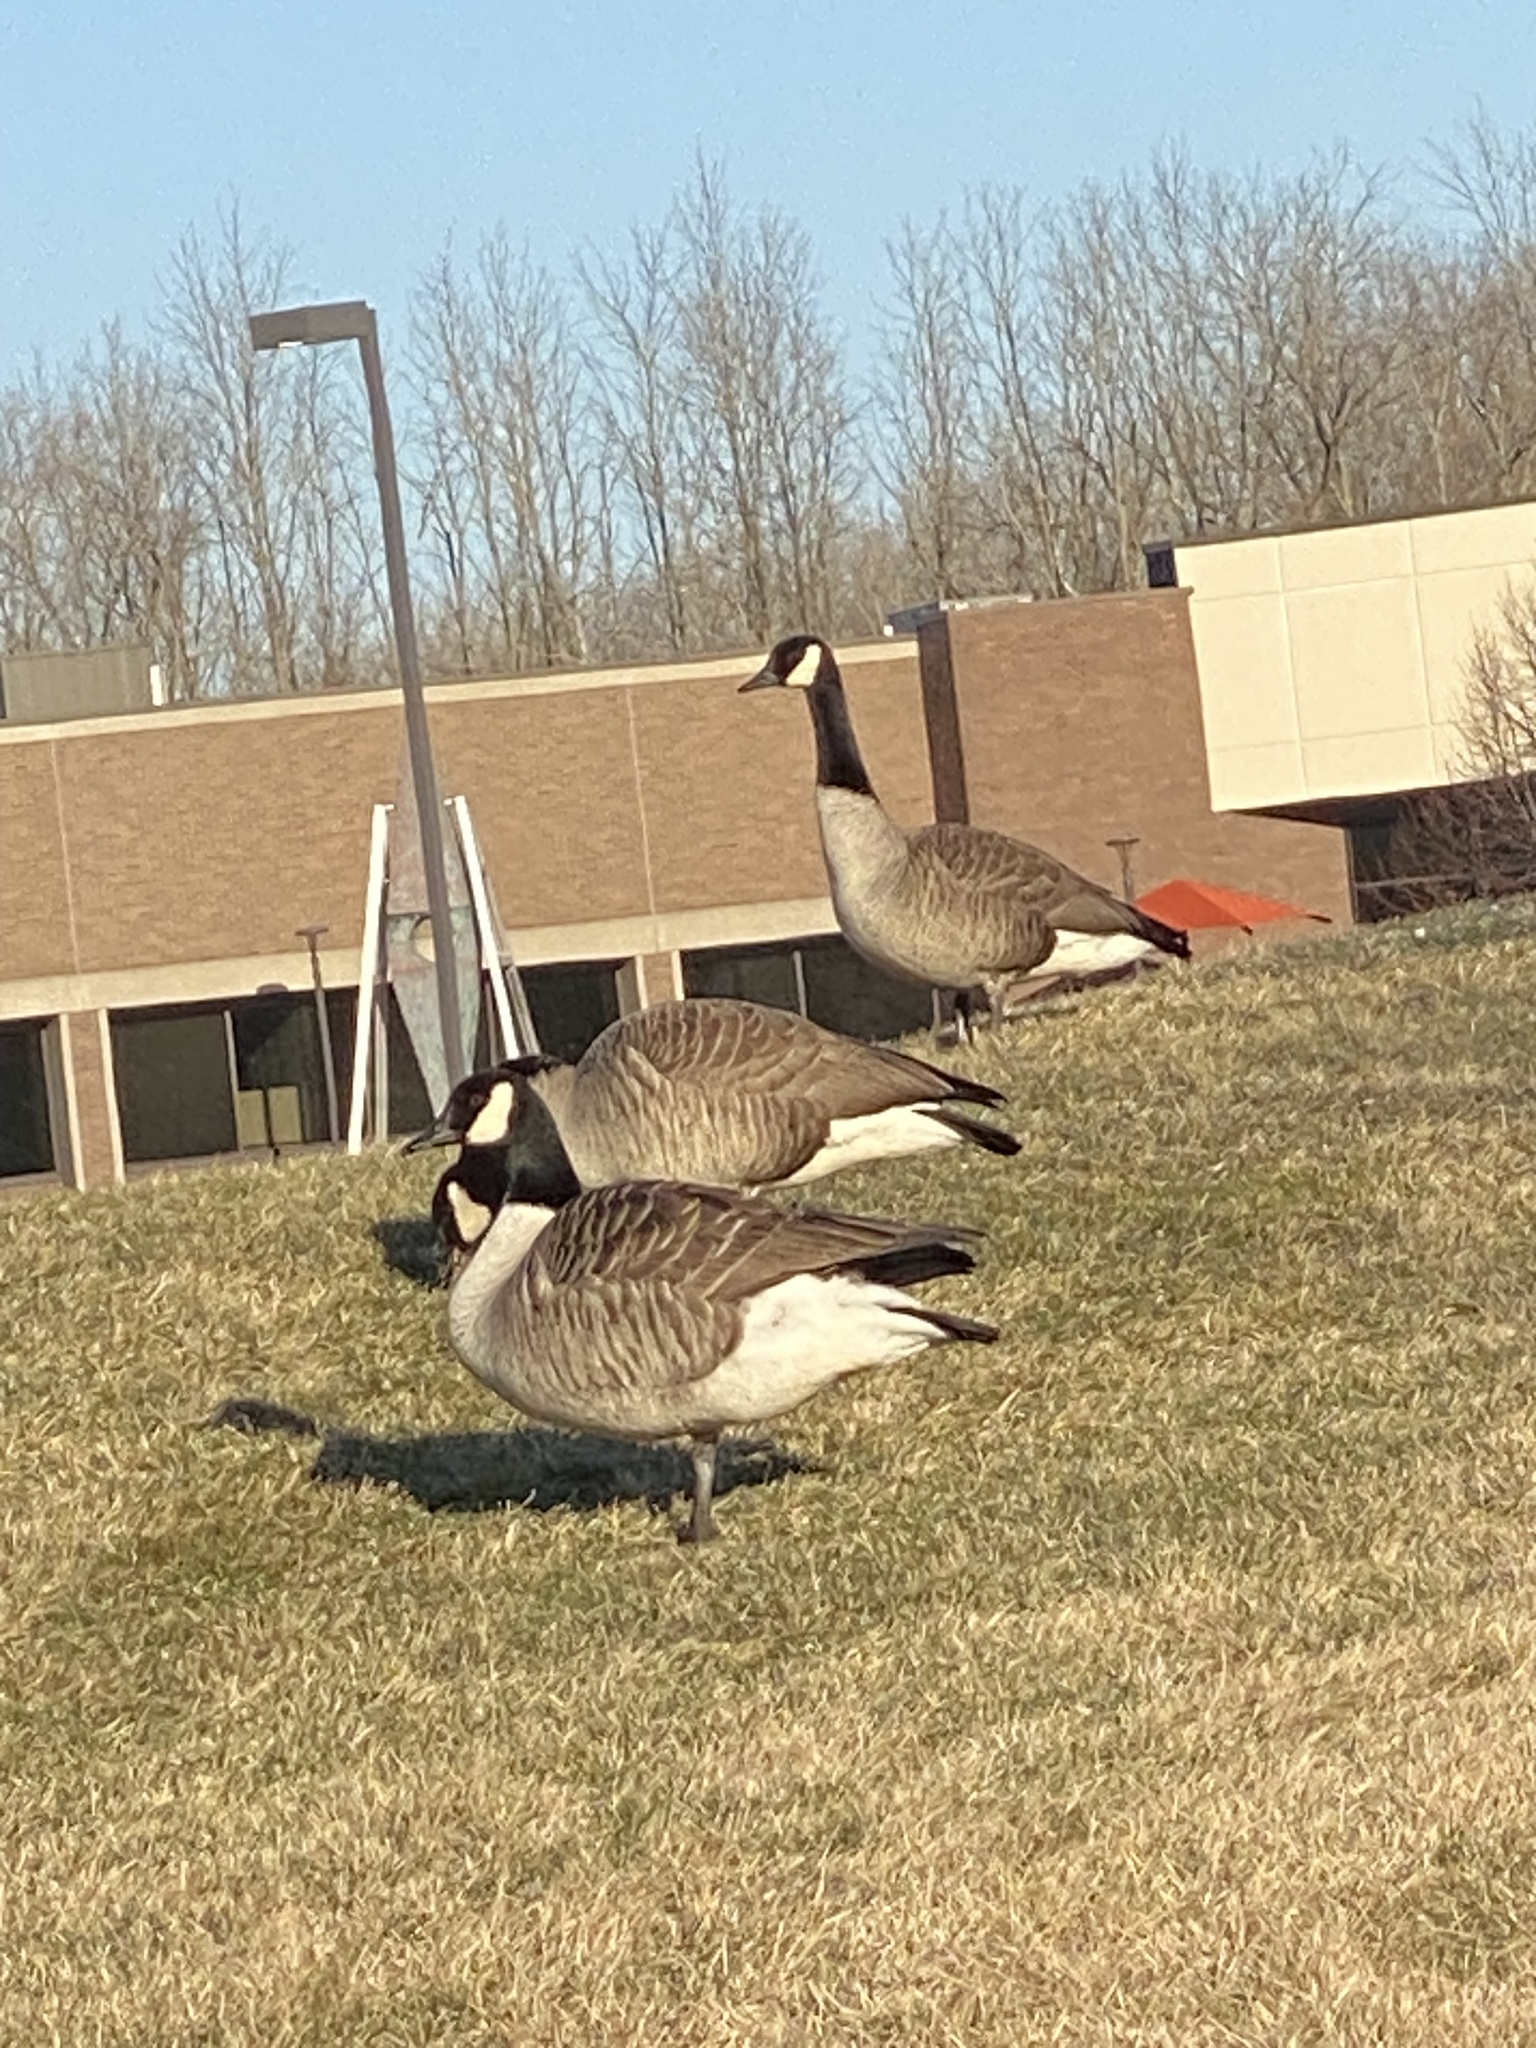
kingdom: Animalia
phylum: Chordata
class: Aves
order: Anseriformes
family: Anatidae
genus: Branta
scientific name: Branta canadensis
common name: Canada goose
